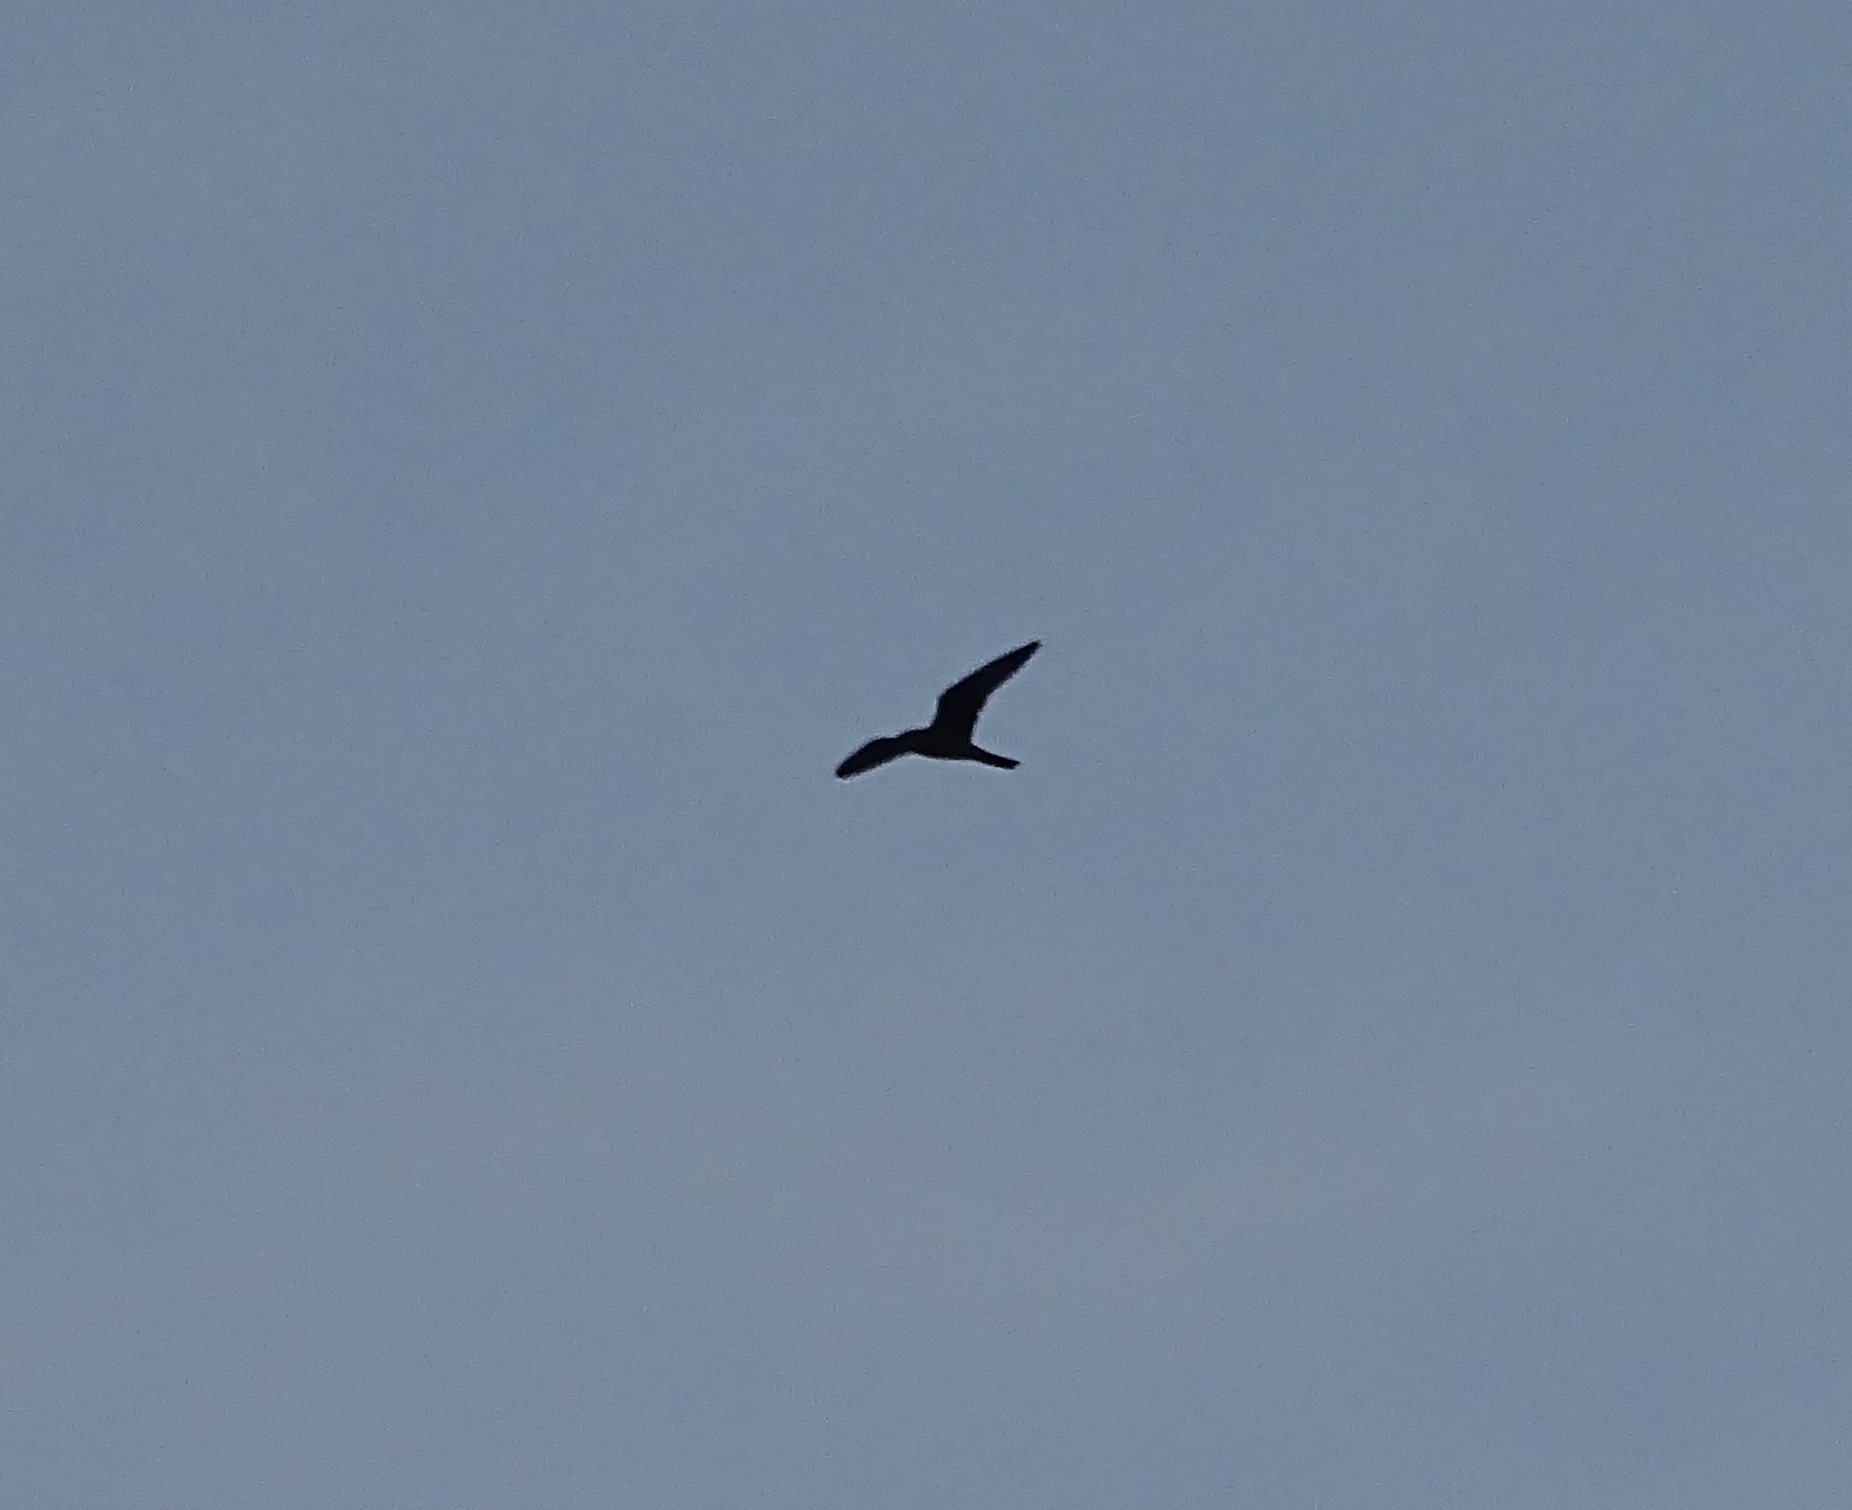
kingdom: Animalia
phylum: Chordata
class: Aves
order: Caprimulgiformes
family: Caprimulgidae
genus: Chordeiles
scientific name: Chordeiles minor
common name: Common nighthawk
